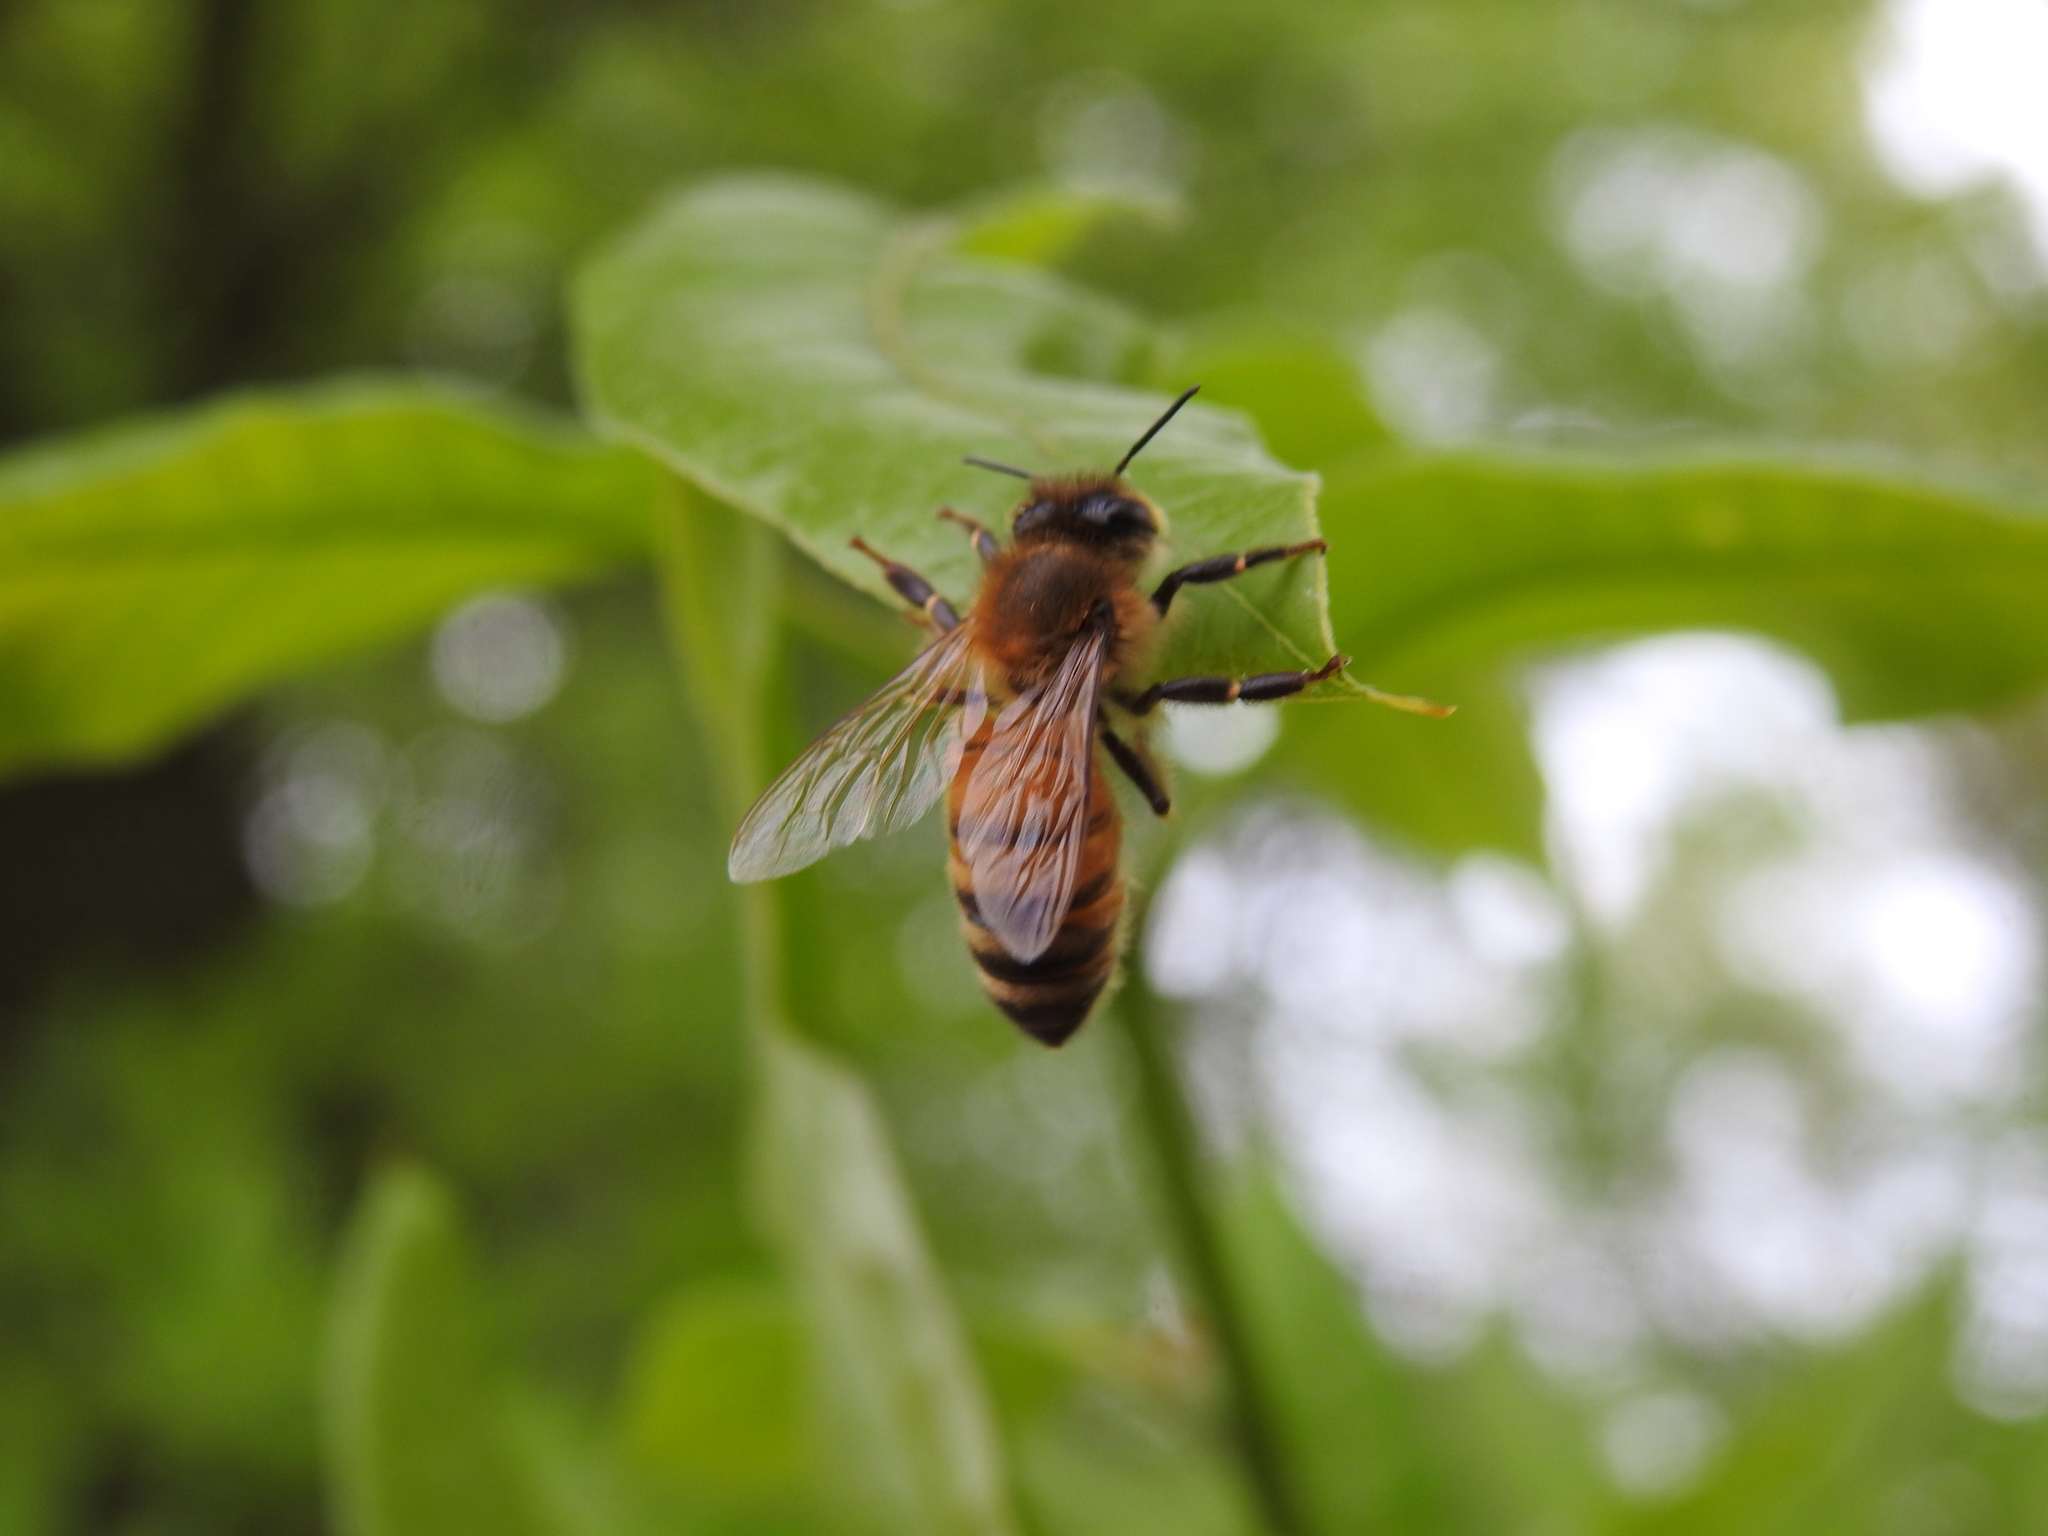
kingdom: Animalia
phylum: Arthropoda
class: Insecta
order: Hymenoptera
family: Apidae
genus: Apis
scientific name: Apis mellifera
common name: Honey bee
